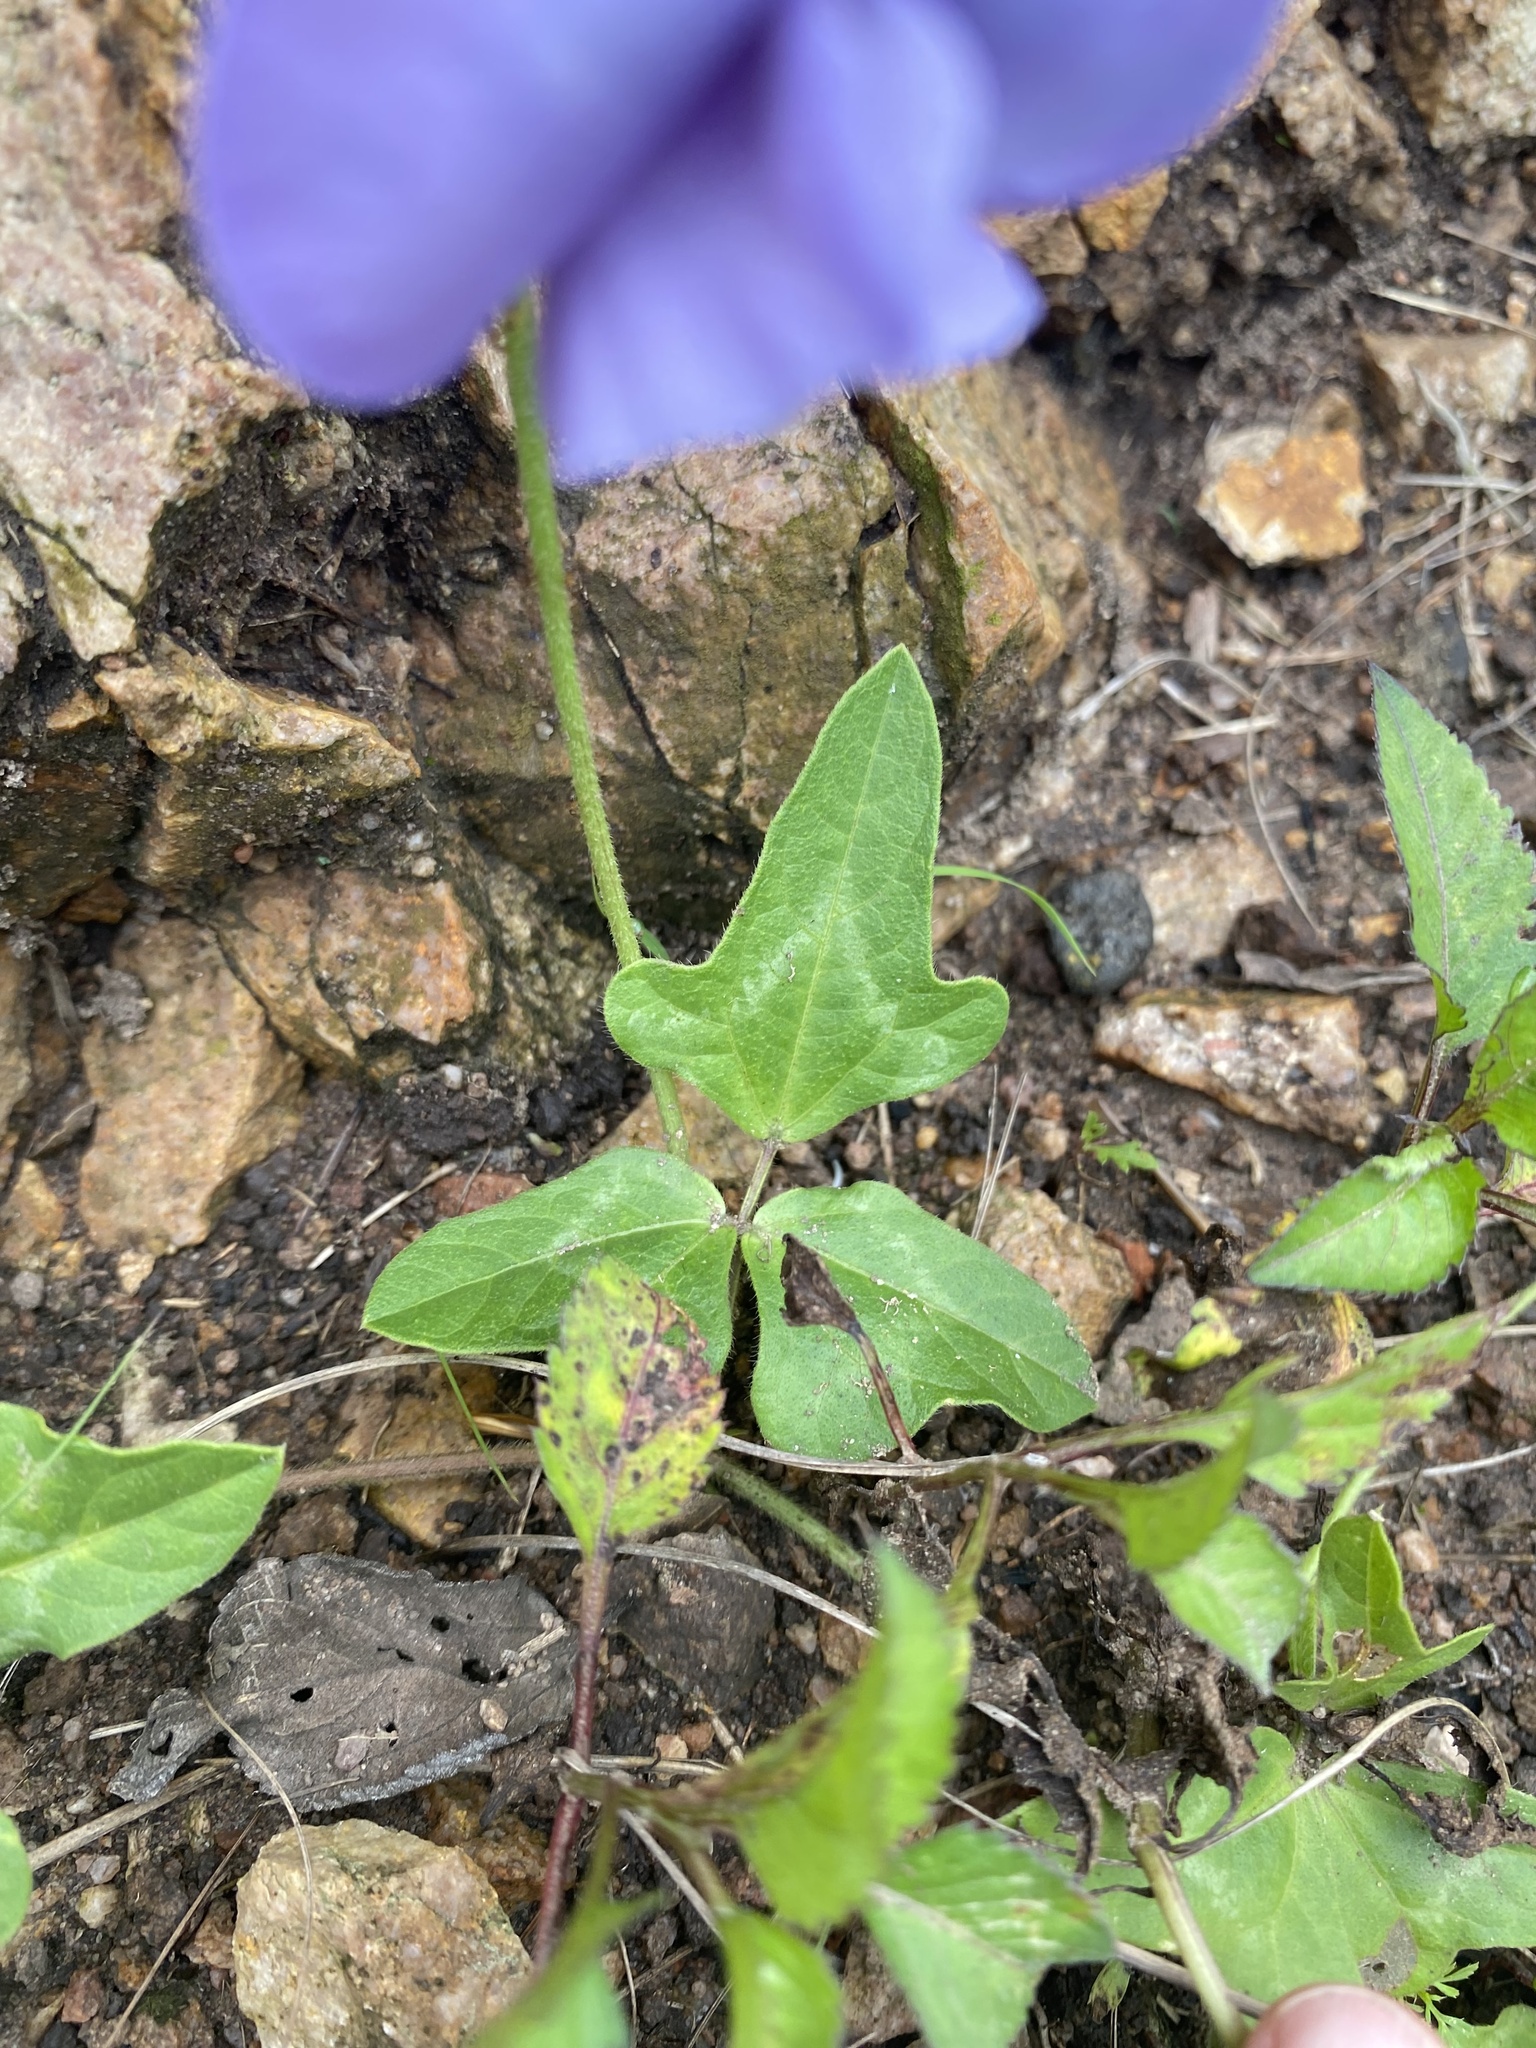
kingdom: Plantae
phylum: Tracheophyta
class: Magnoliopsida
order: Fabales
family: Fabaceae
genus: Vigna
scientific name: Vigna unguiculata
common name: Cowpea
